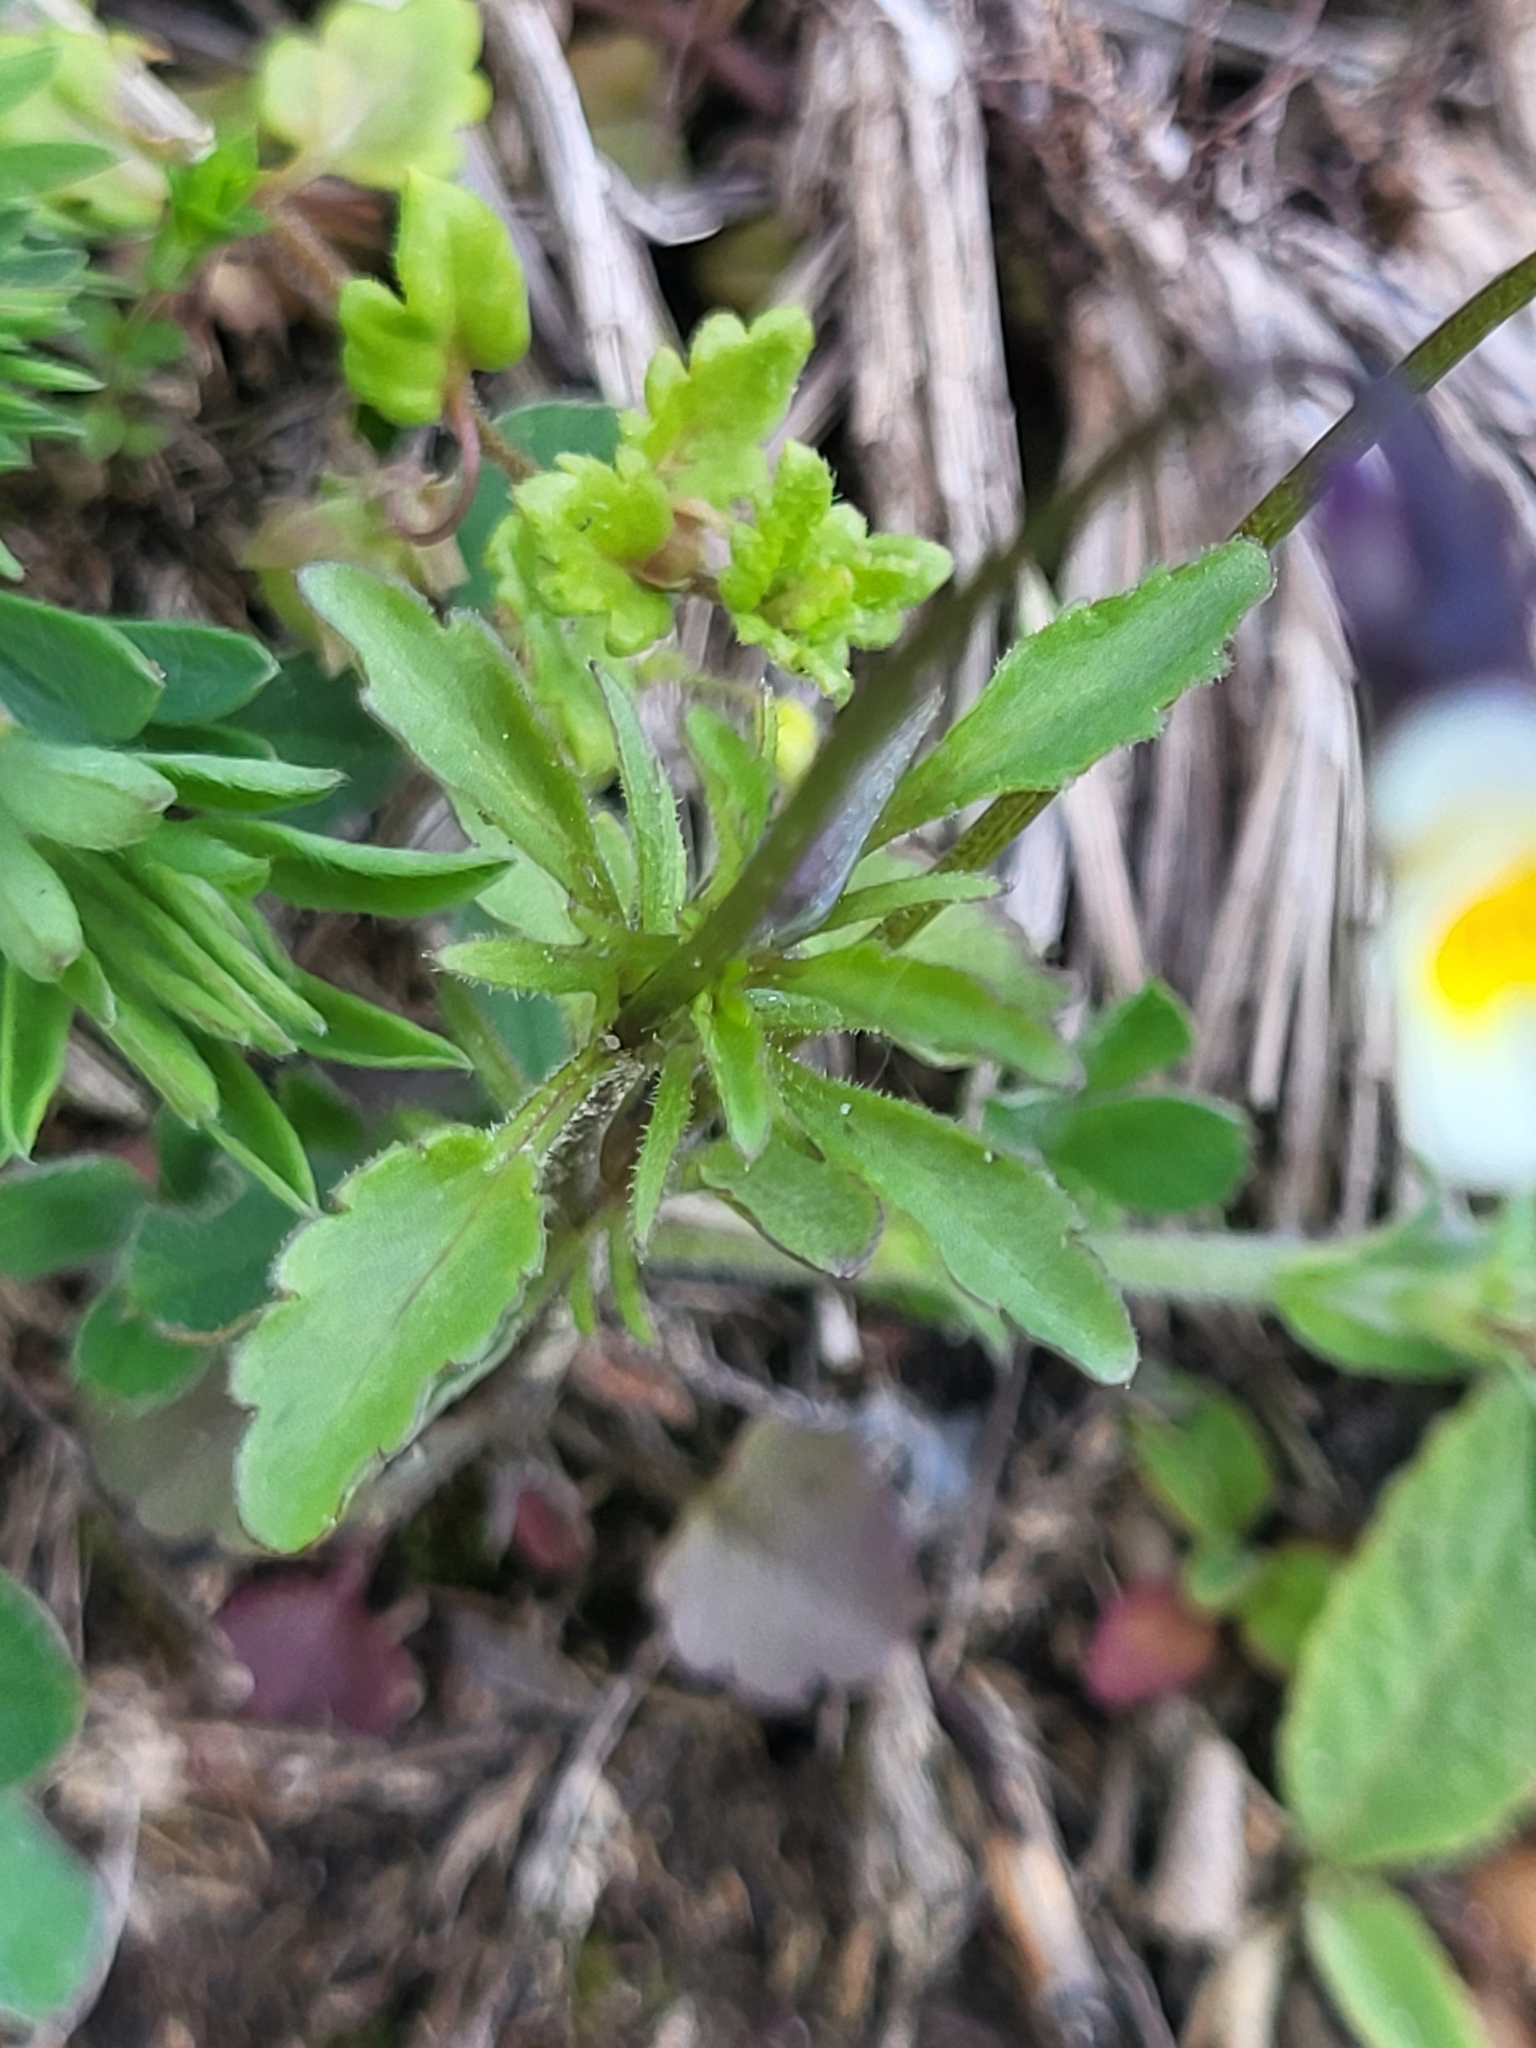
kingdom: Plantae
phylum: Tracheophyta
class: Magnoliopsida
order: Malpighiales
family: Violaceae
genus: Viola
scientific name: Viola arvensis
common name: Field pansy
